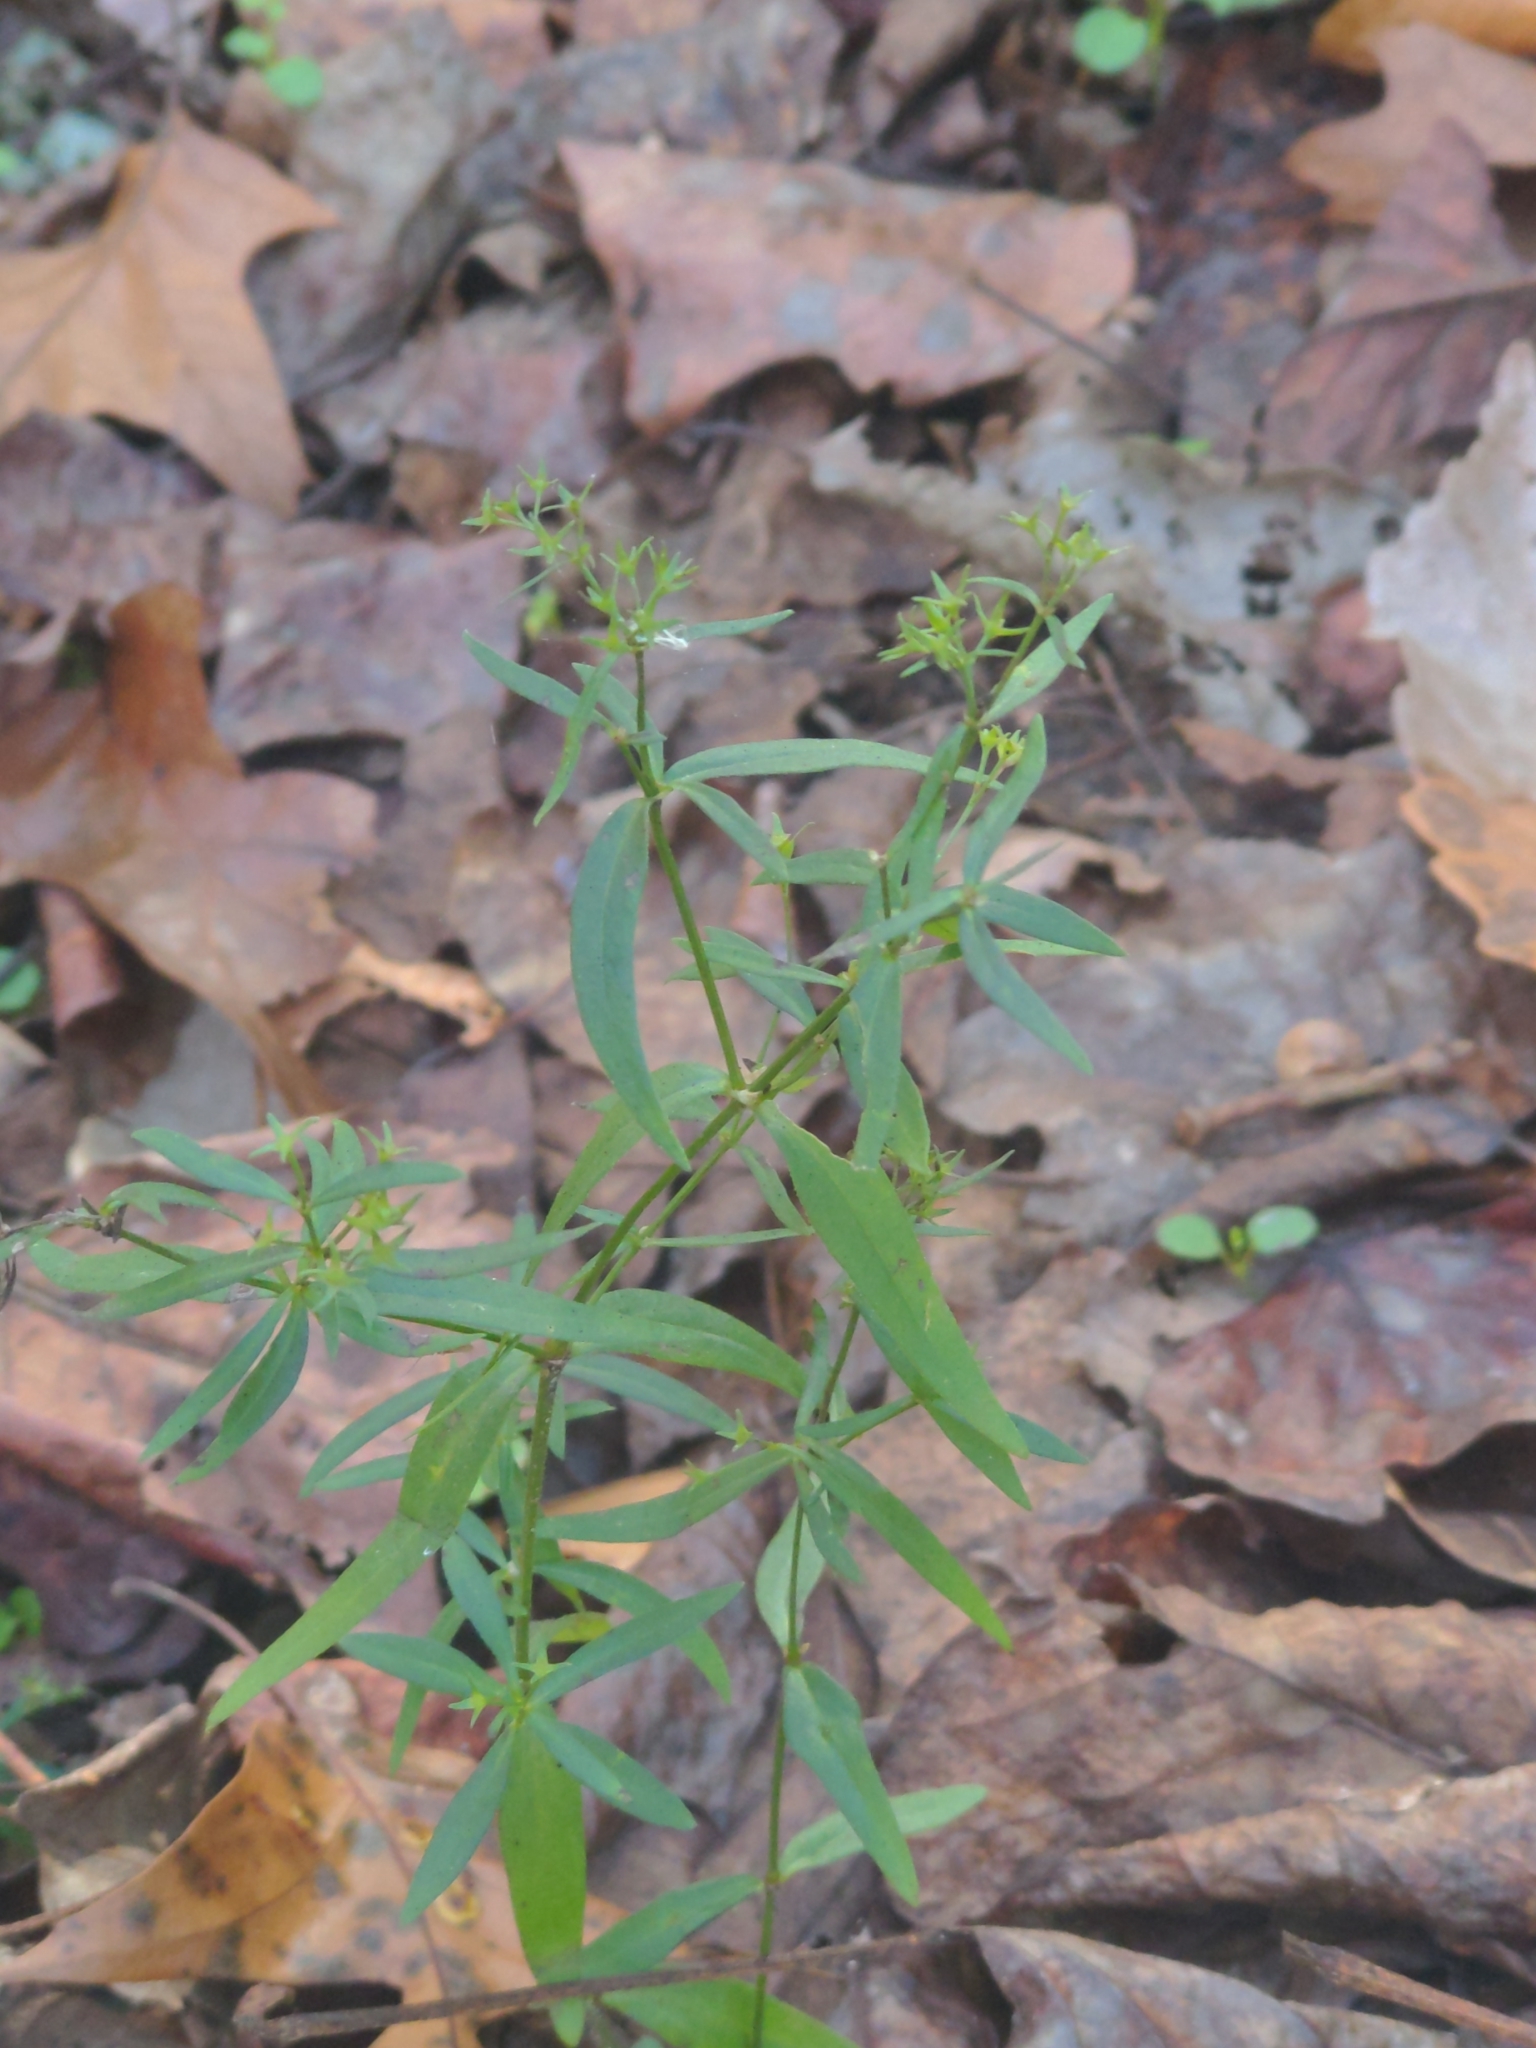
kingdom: Plantae
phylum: Tracheophyta
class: Magnoliopsida
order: Gentianales
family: Rubiaceae
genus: Houstonia
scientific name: Houstonia longifolia
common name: Long-leaved bluets
